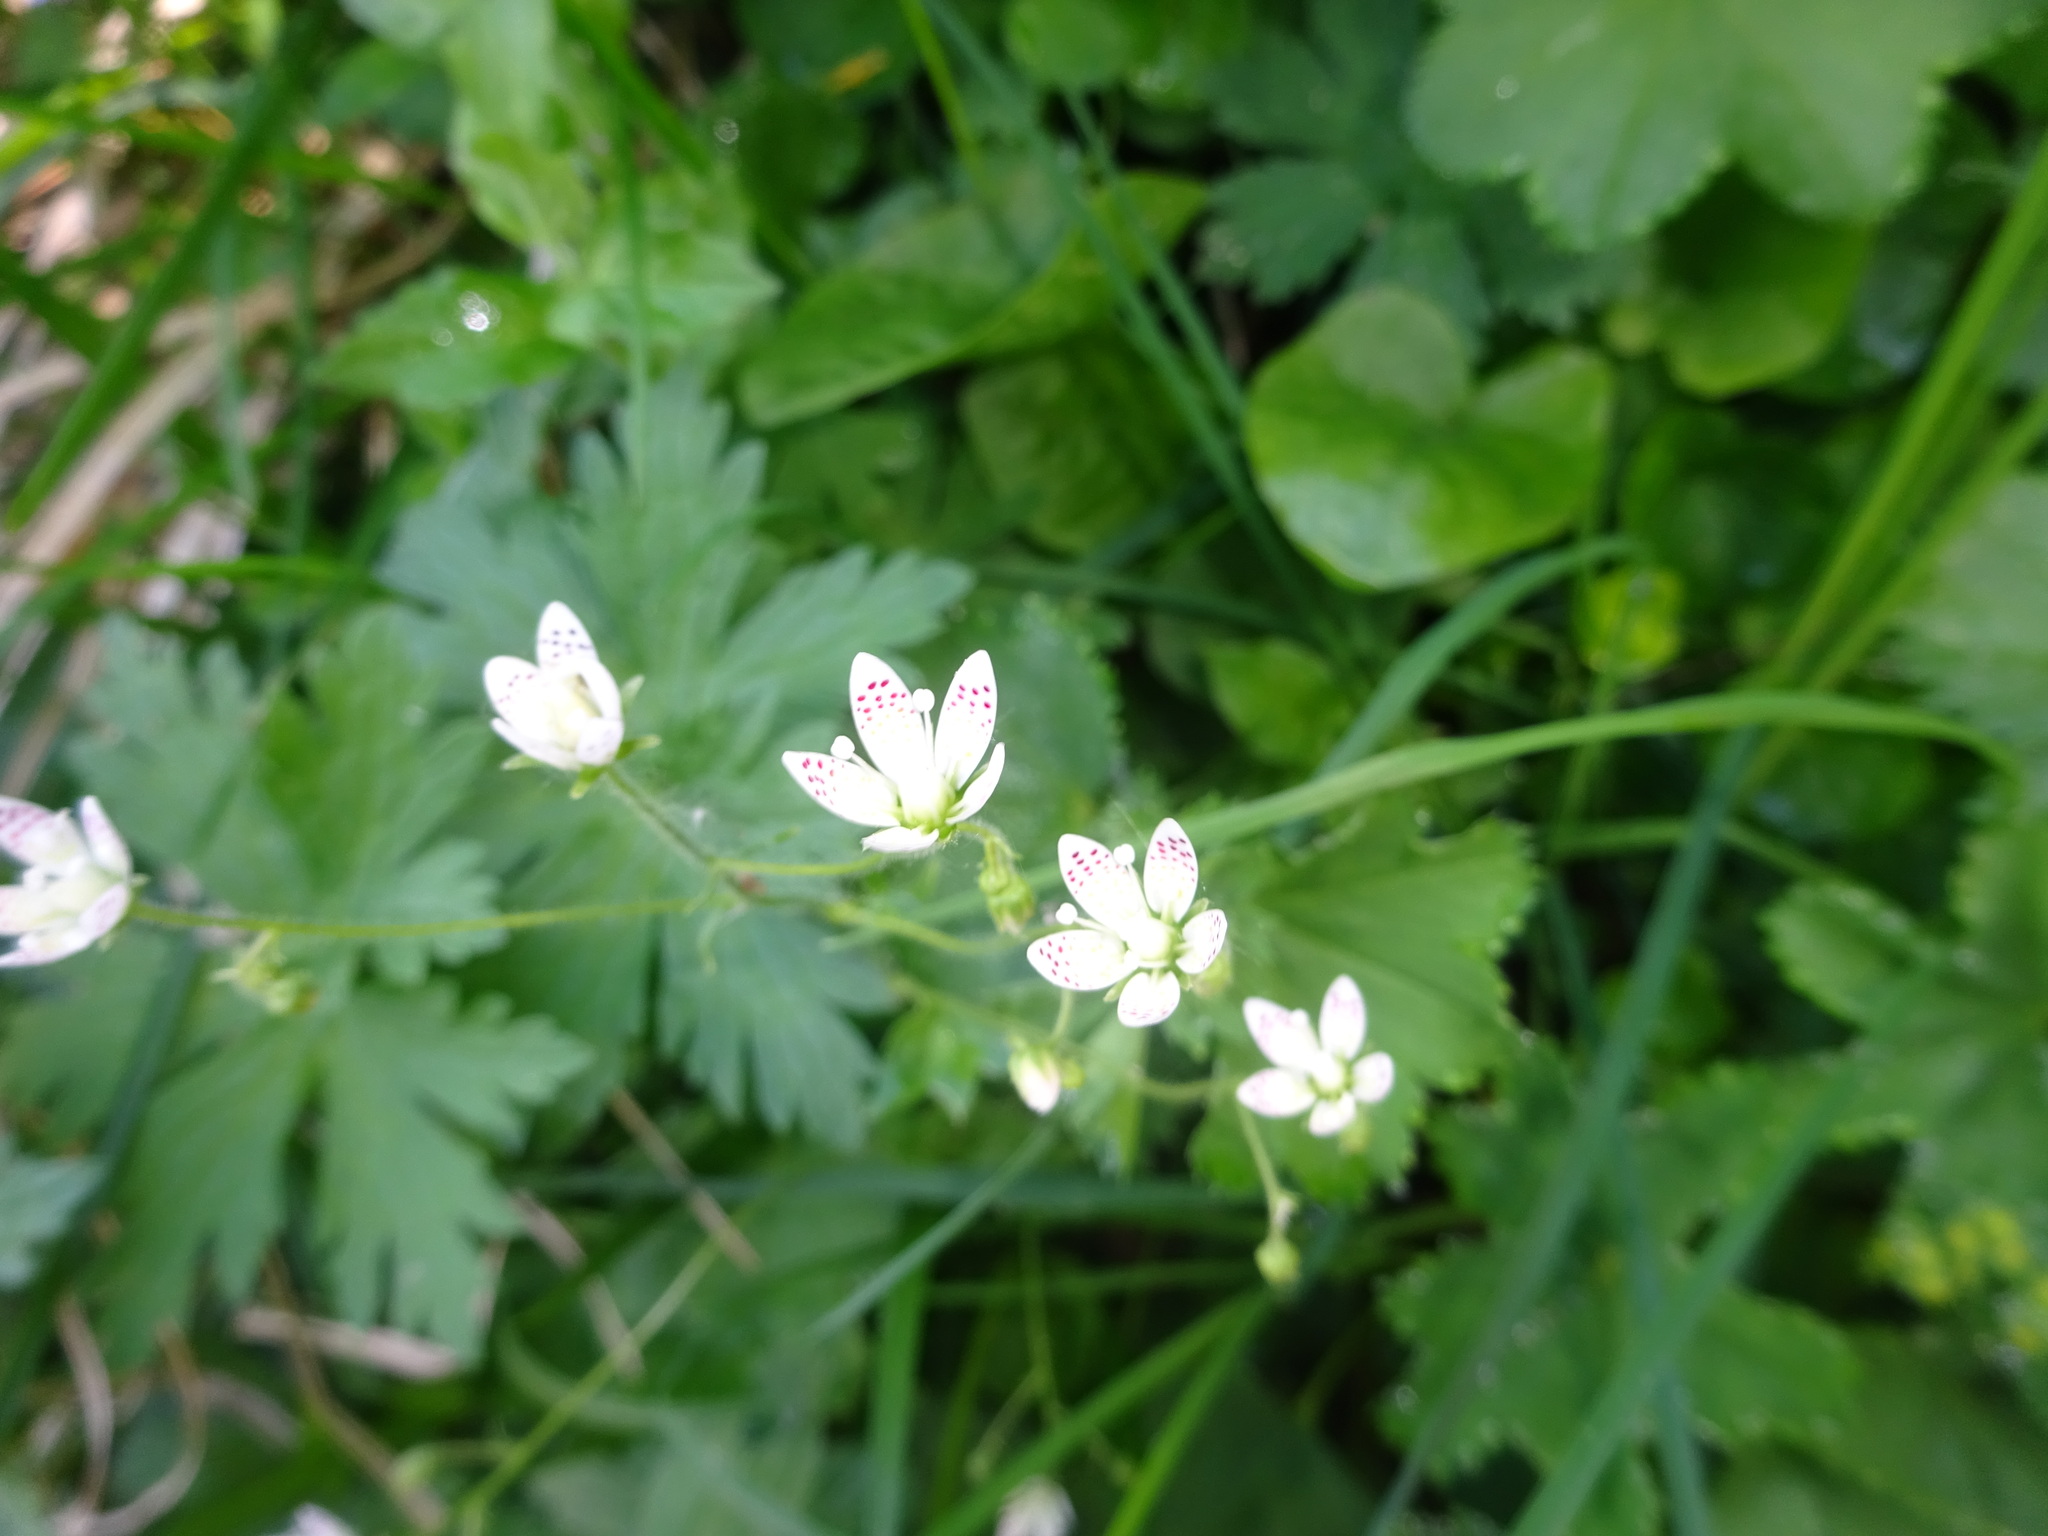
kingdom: Plantae
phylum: Tracheophyta
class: Magnoliopsida
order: Saxifragales
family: Saxifragaceae
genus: Saxifraga
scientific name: Saxifraga rotundifolia
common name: Round-leaved saxifrage
